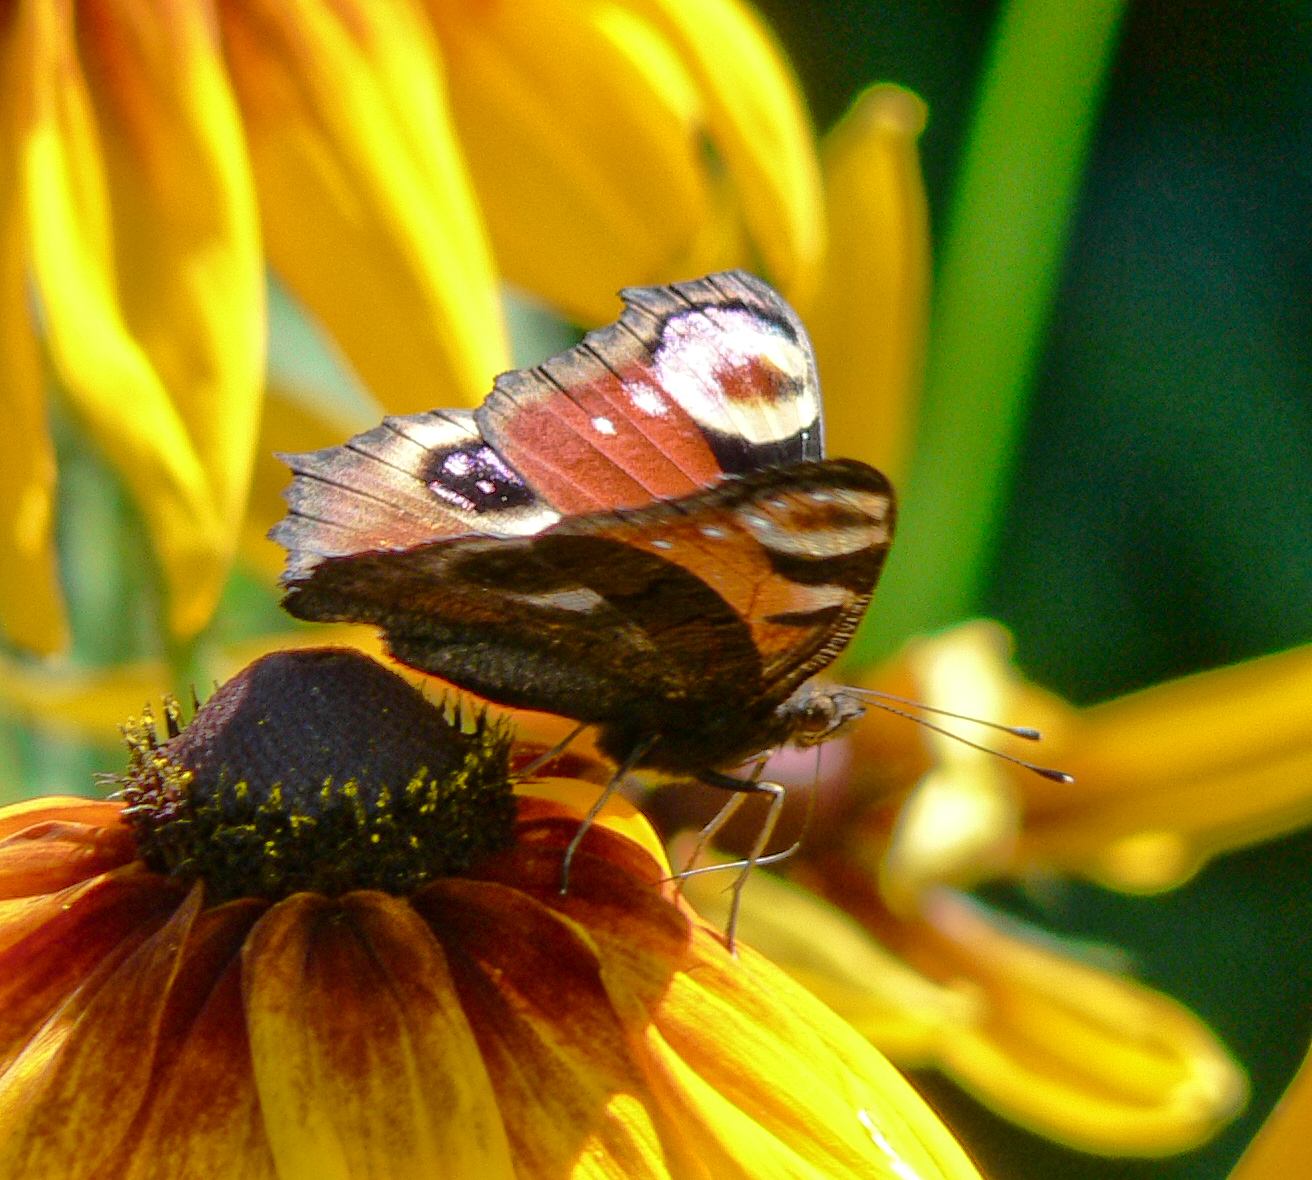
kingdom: Animalia
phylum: Arthropoda
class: Insecta
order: Lepidoptera
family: Nymphalidae
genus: Aglais
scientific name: Aglais io
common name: Peacock
